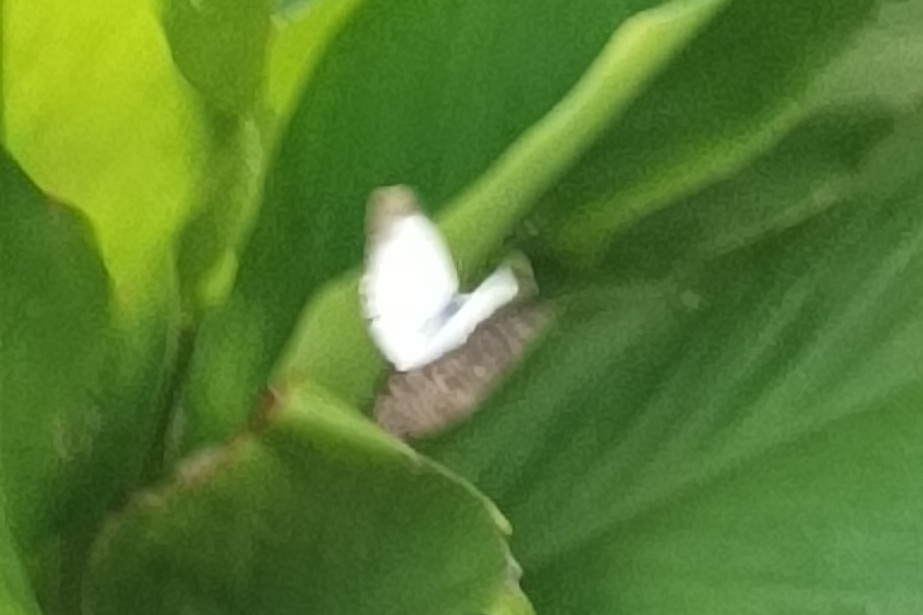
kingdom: Animalia
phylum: Arthropoda
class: Insecta
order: Lepidoptera
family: Pieridae
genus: Belenois
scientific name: Belenois java
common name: Caper white
